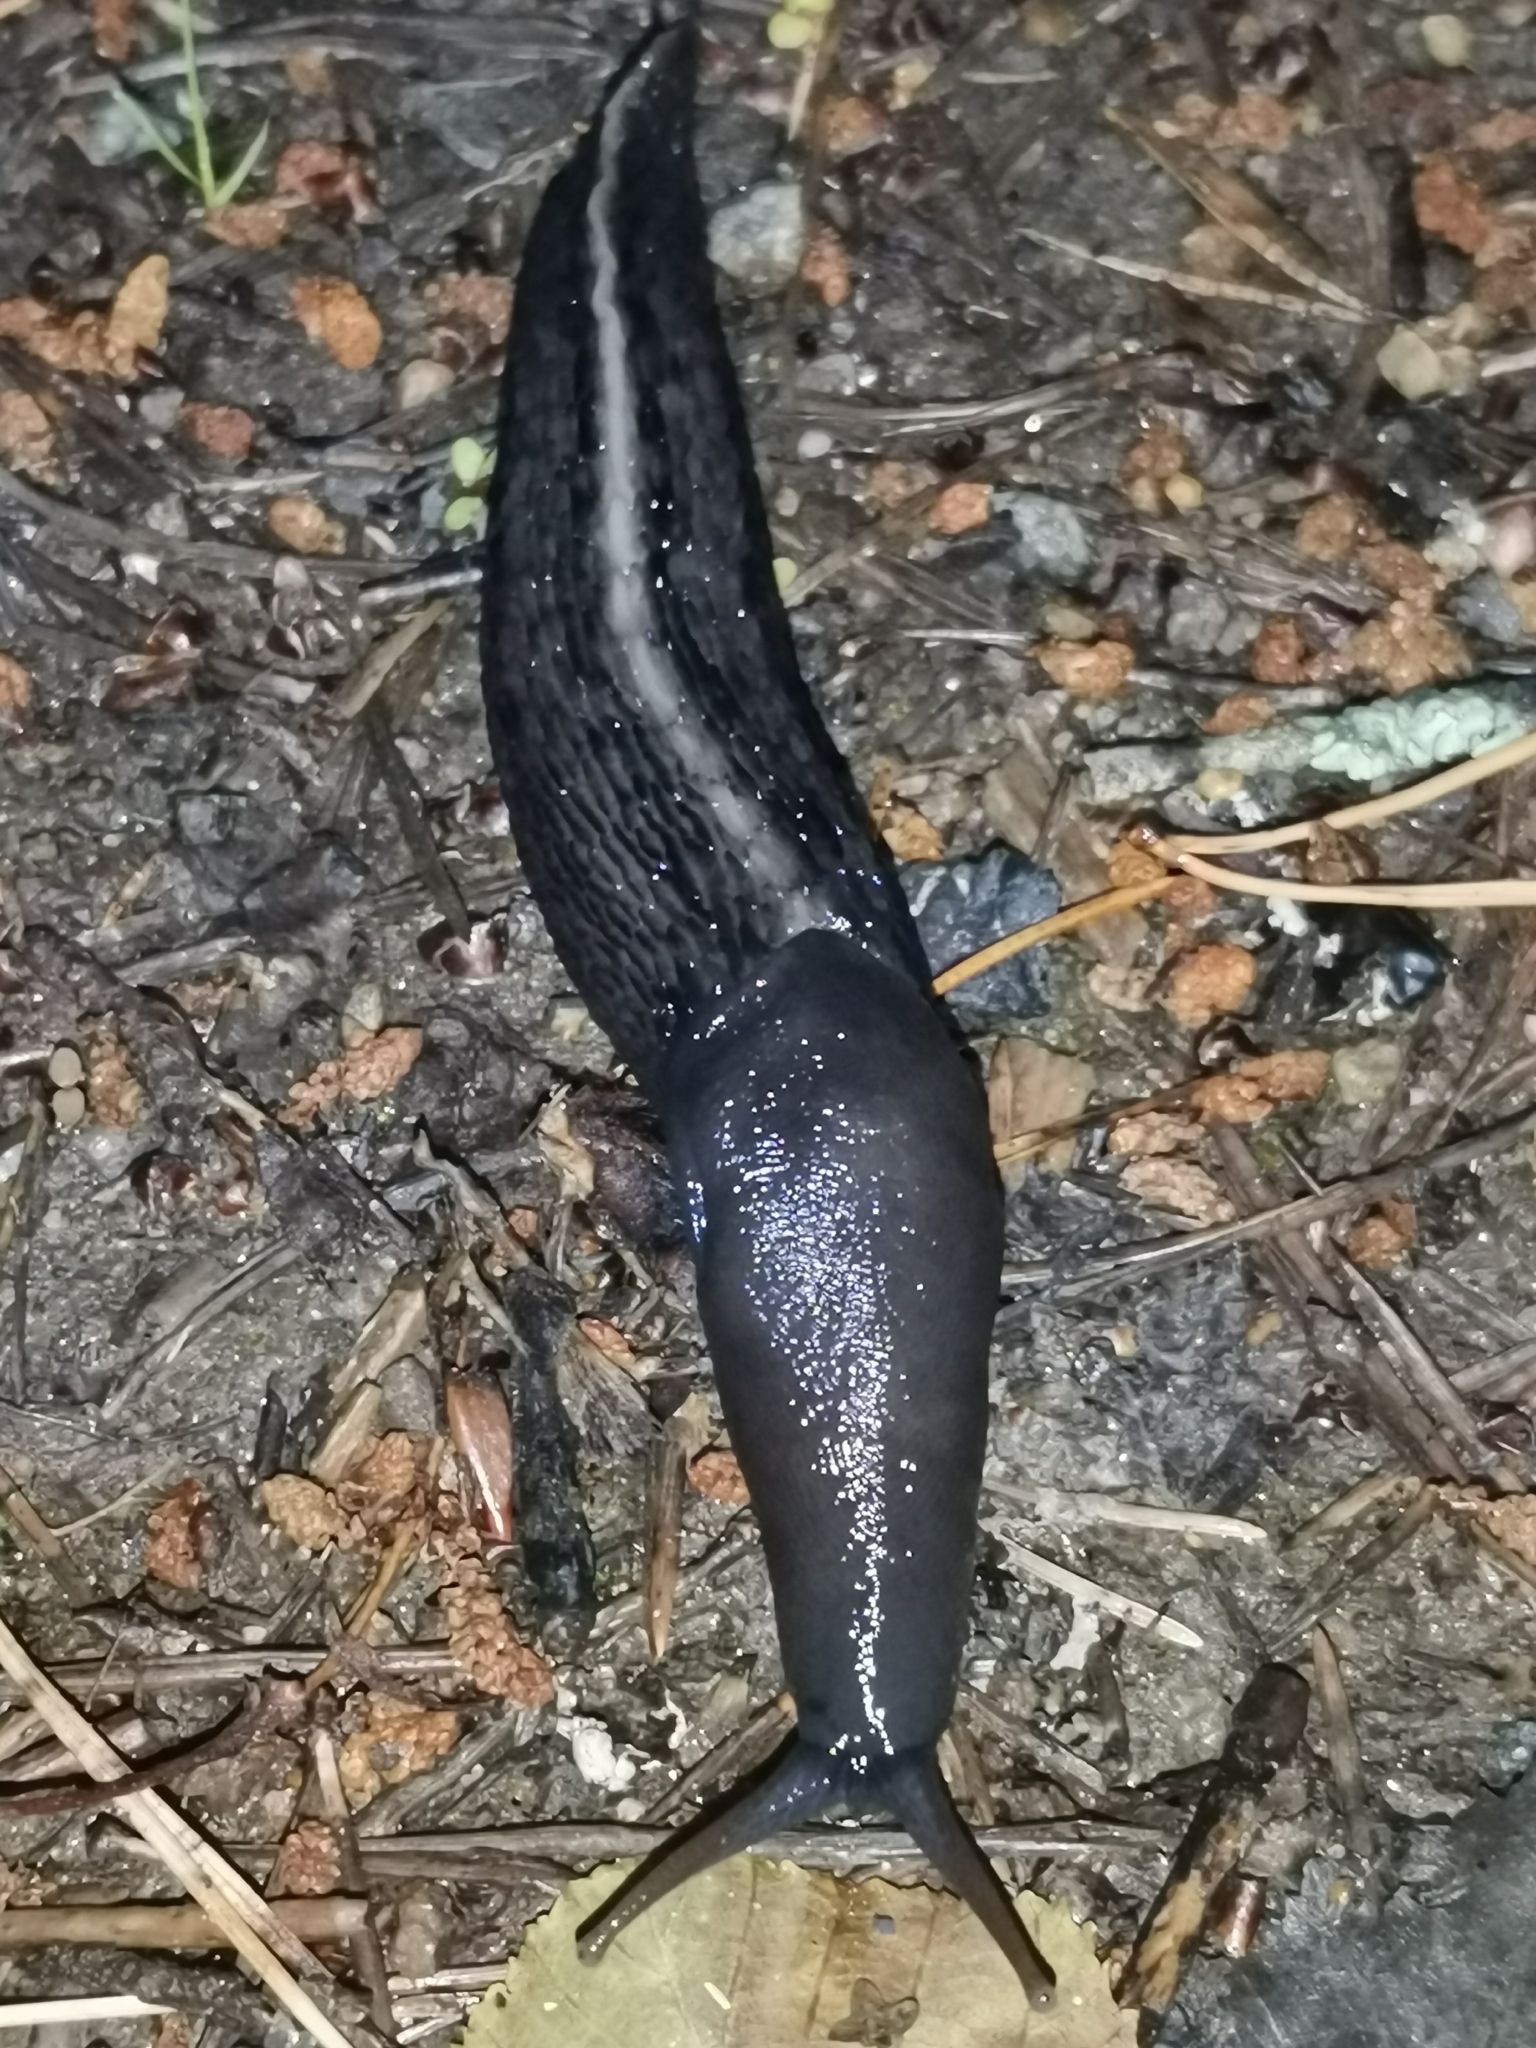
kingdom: Animalia
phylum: Mollusca
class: Gastropoda
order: Stylommatophora
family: Limacidae
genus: Limax
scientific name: Limax cinereoniger
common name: Ash-black slug
